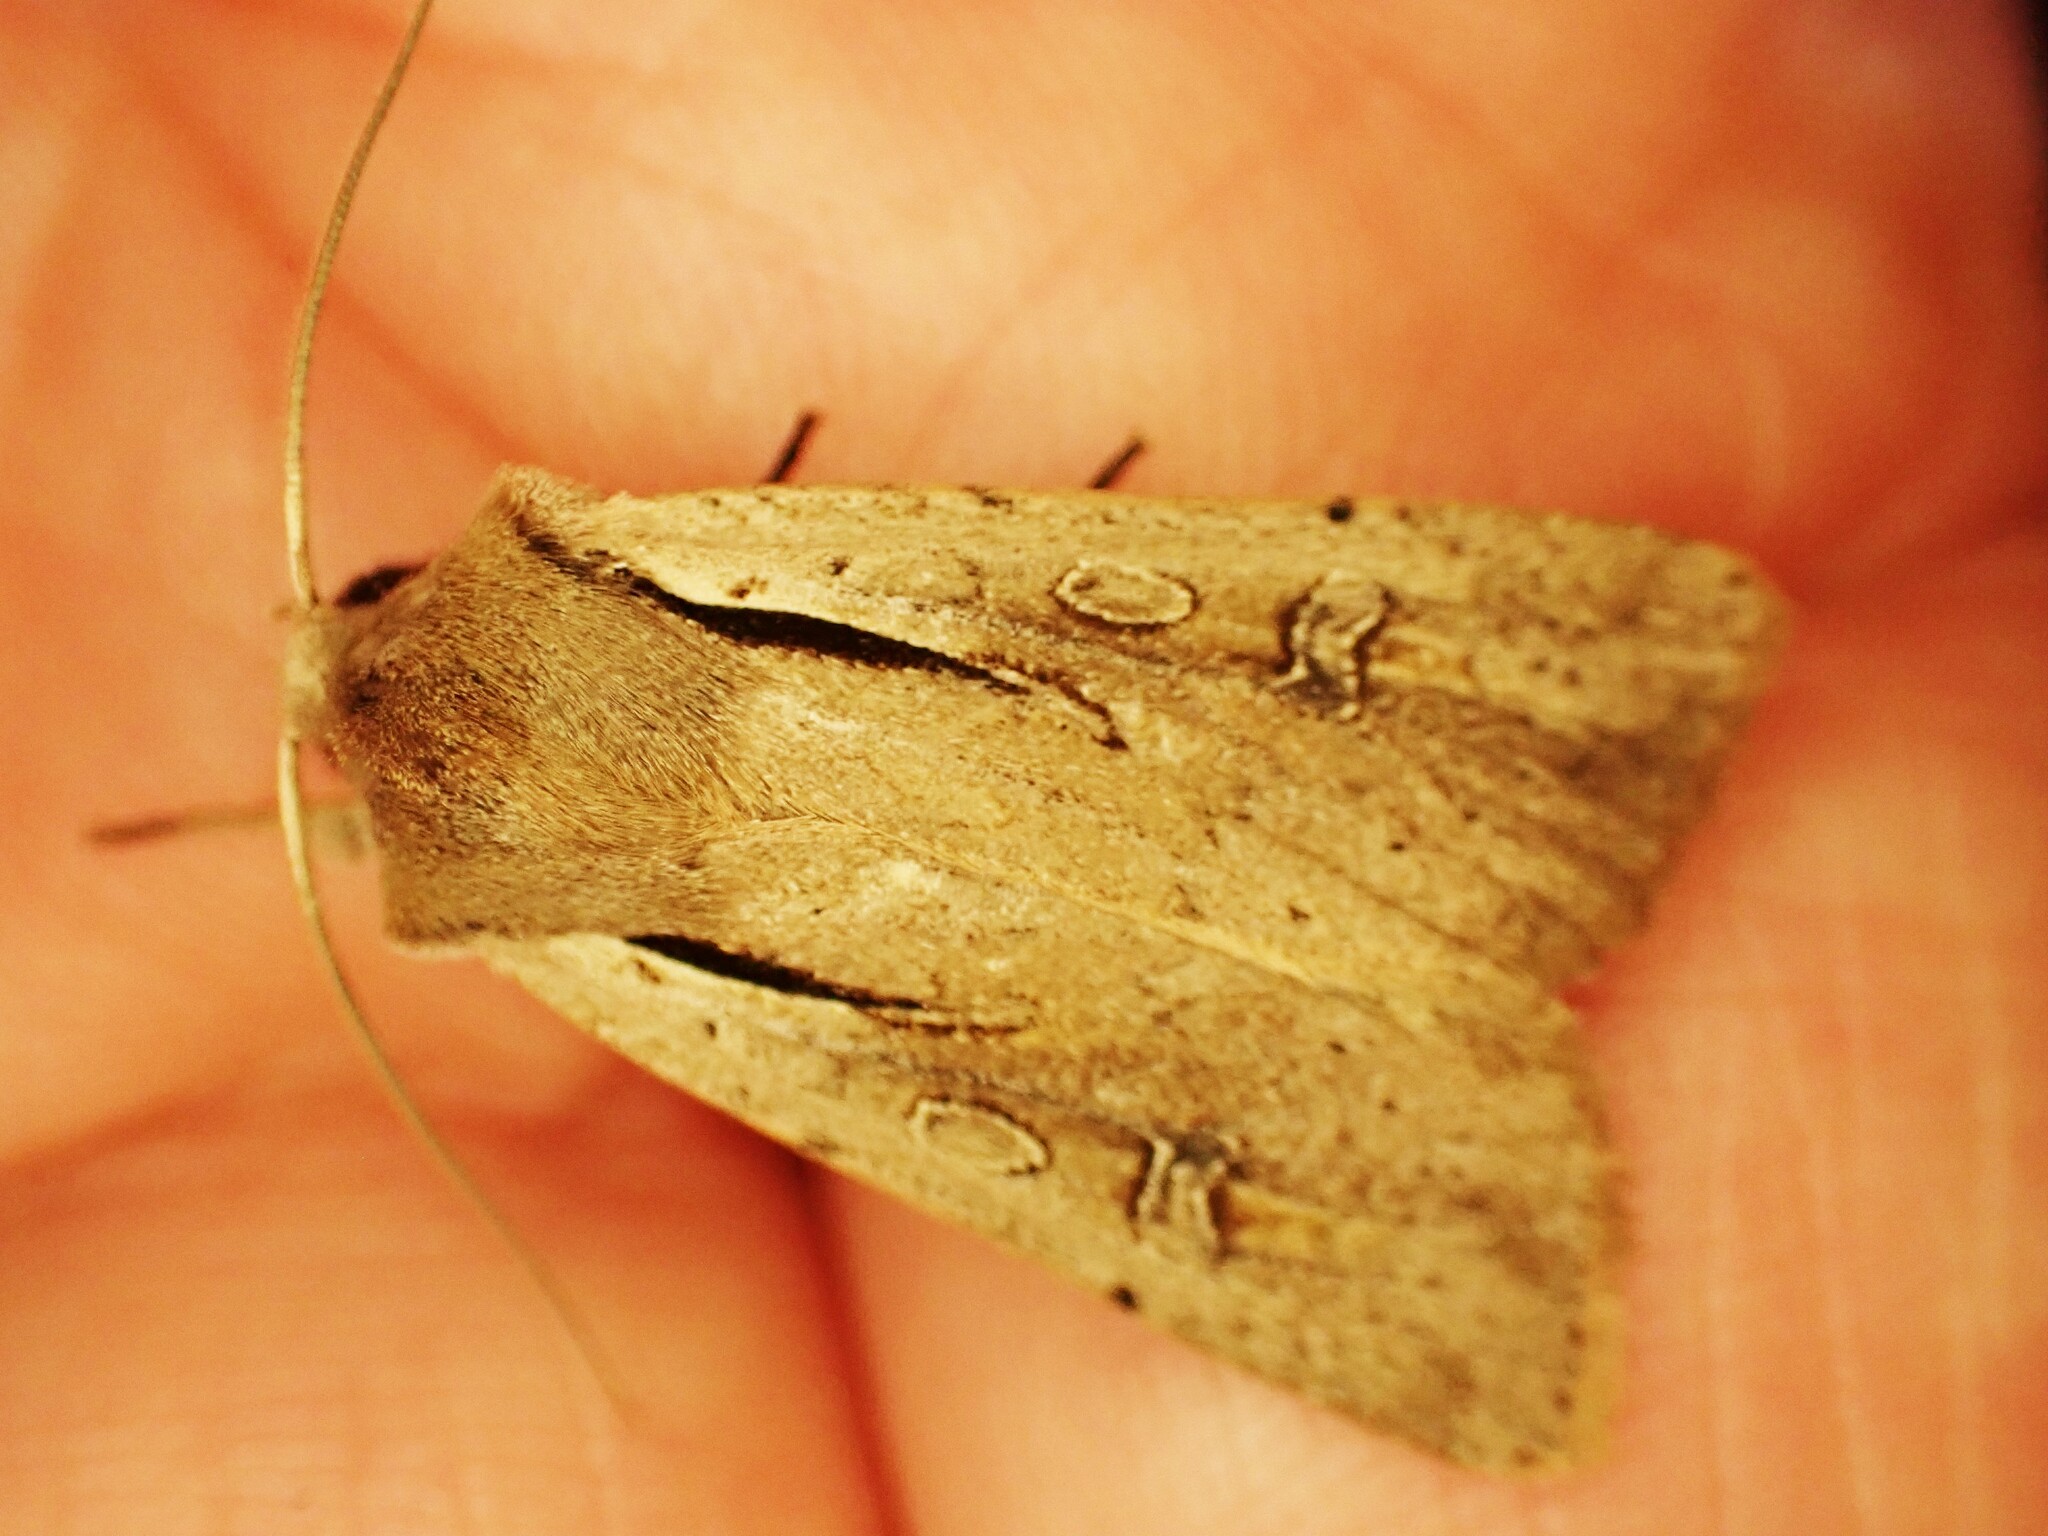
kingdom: Animalia
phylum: Arthropoda
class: Insecta
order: Lepidoptera
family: Noctuidae
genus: Ichneutica
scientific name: Ichneutica atristriga
